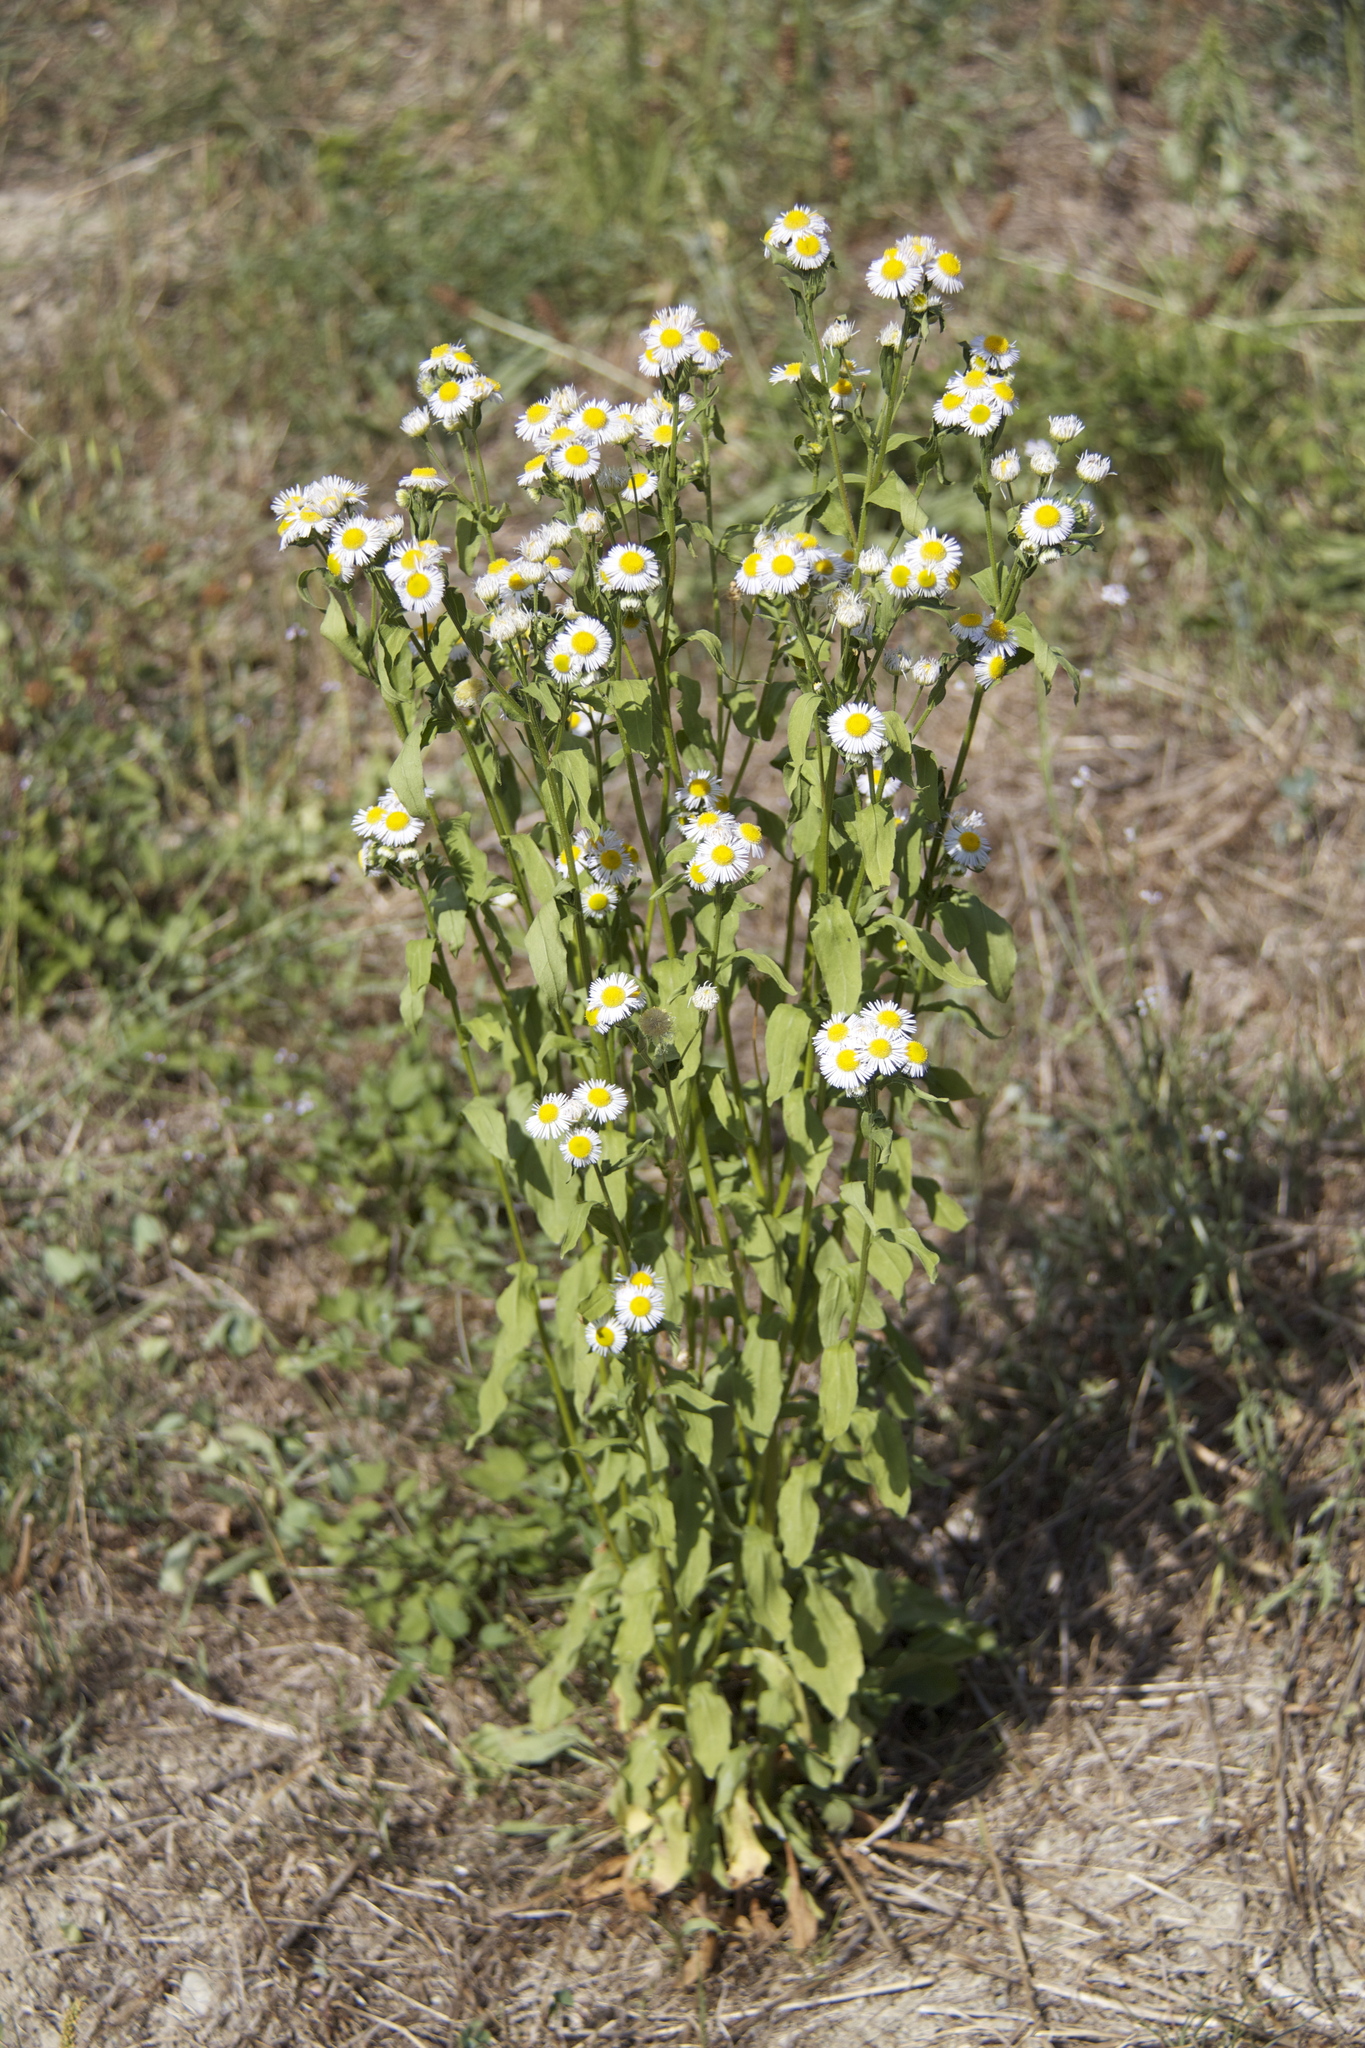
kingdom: Plantae
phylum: Tracheophyta
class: Magnoliopsida
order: Asterales
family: Asteraceae
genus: Erigeron
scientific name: Erigeron annuus
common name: Tall fleabane
